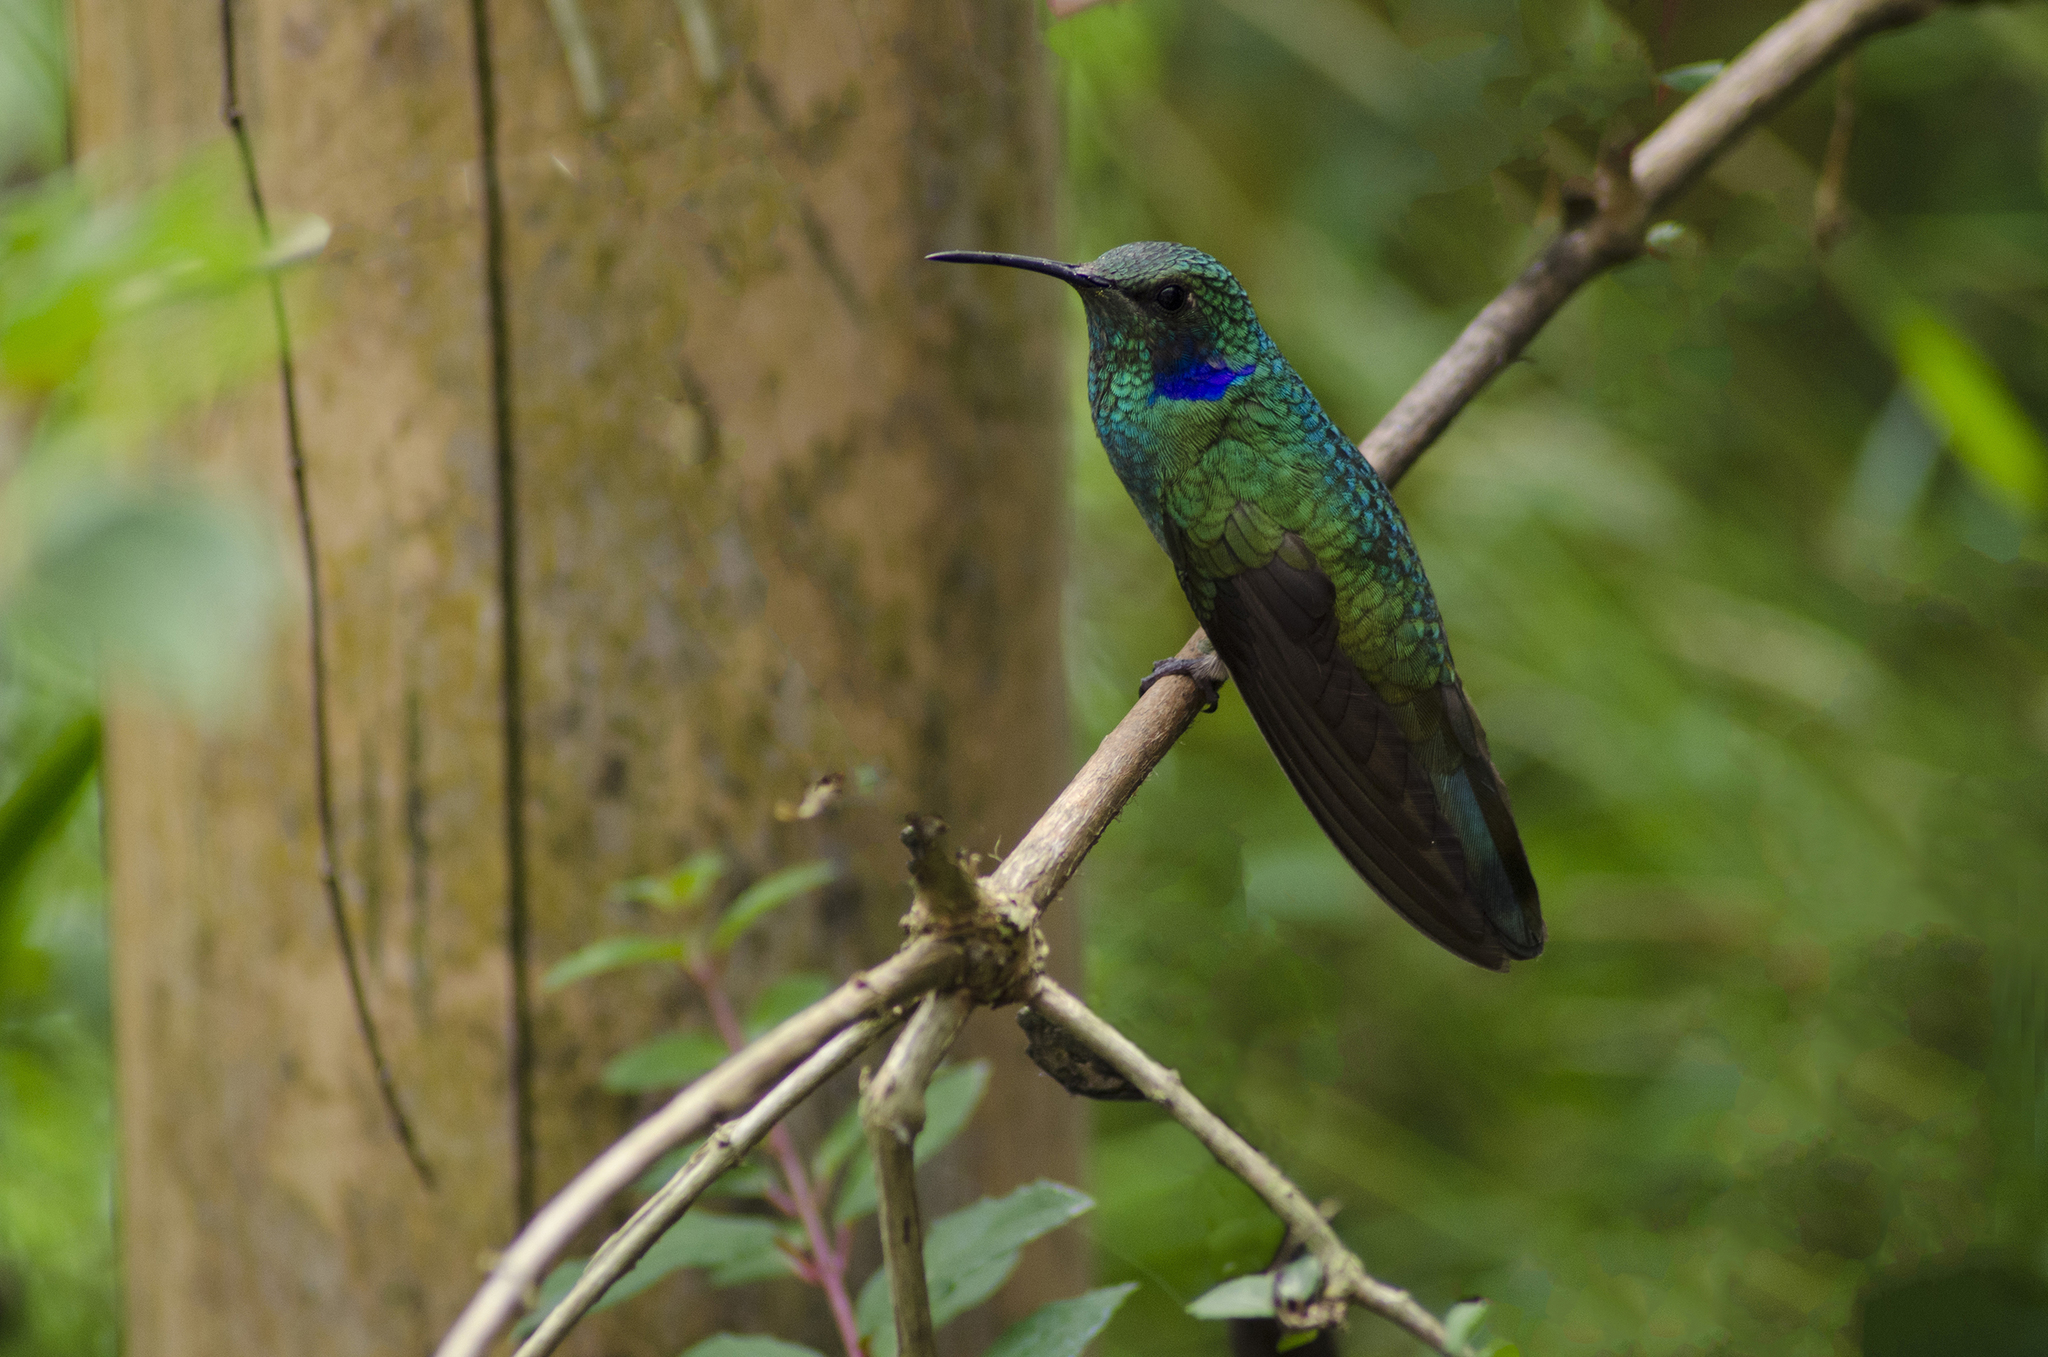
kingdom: Animalia
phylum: Chordata
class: Aves
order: Apodiformes
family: Trochilidae
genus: Colibri
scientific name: Colibri cyanotus
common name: Lesser violetear
